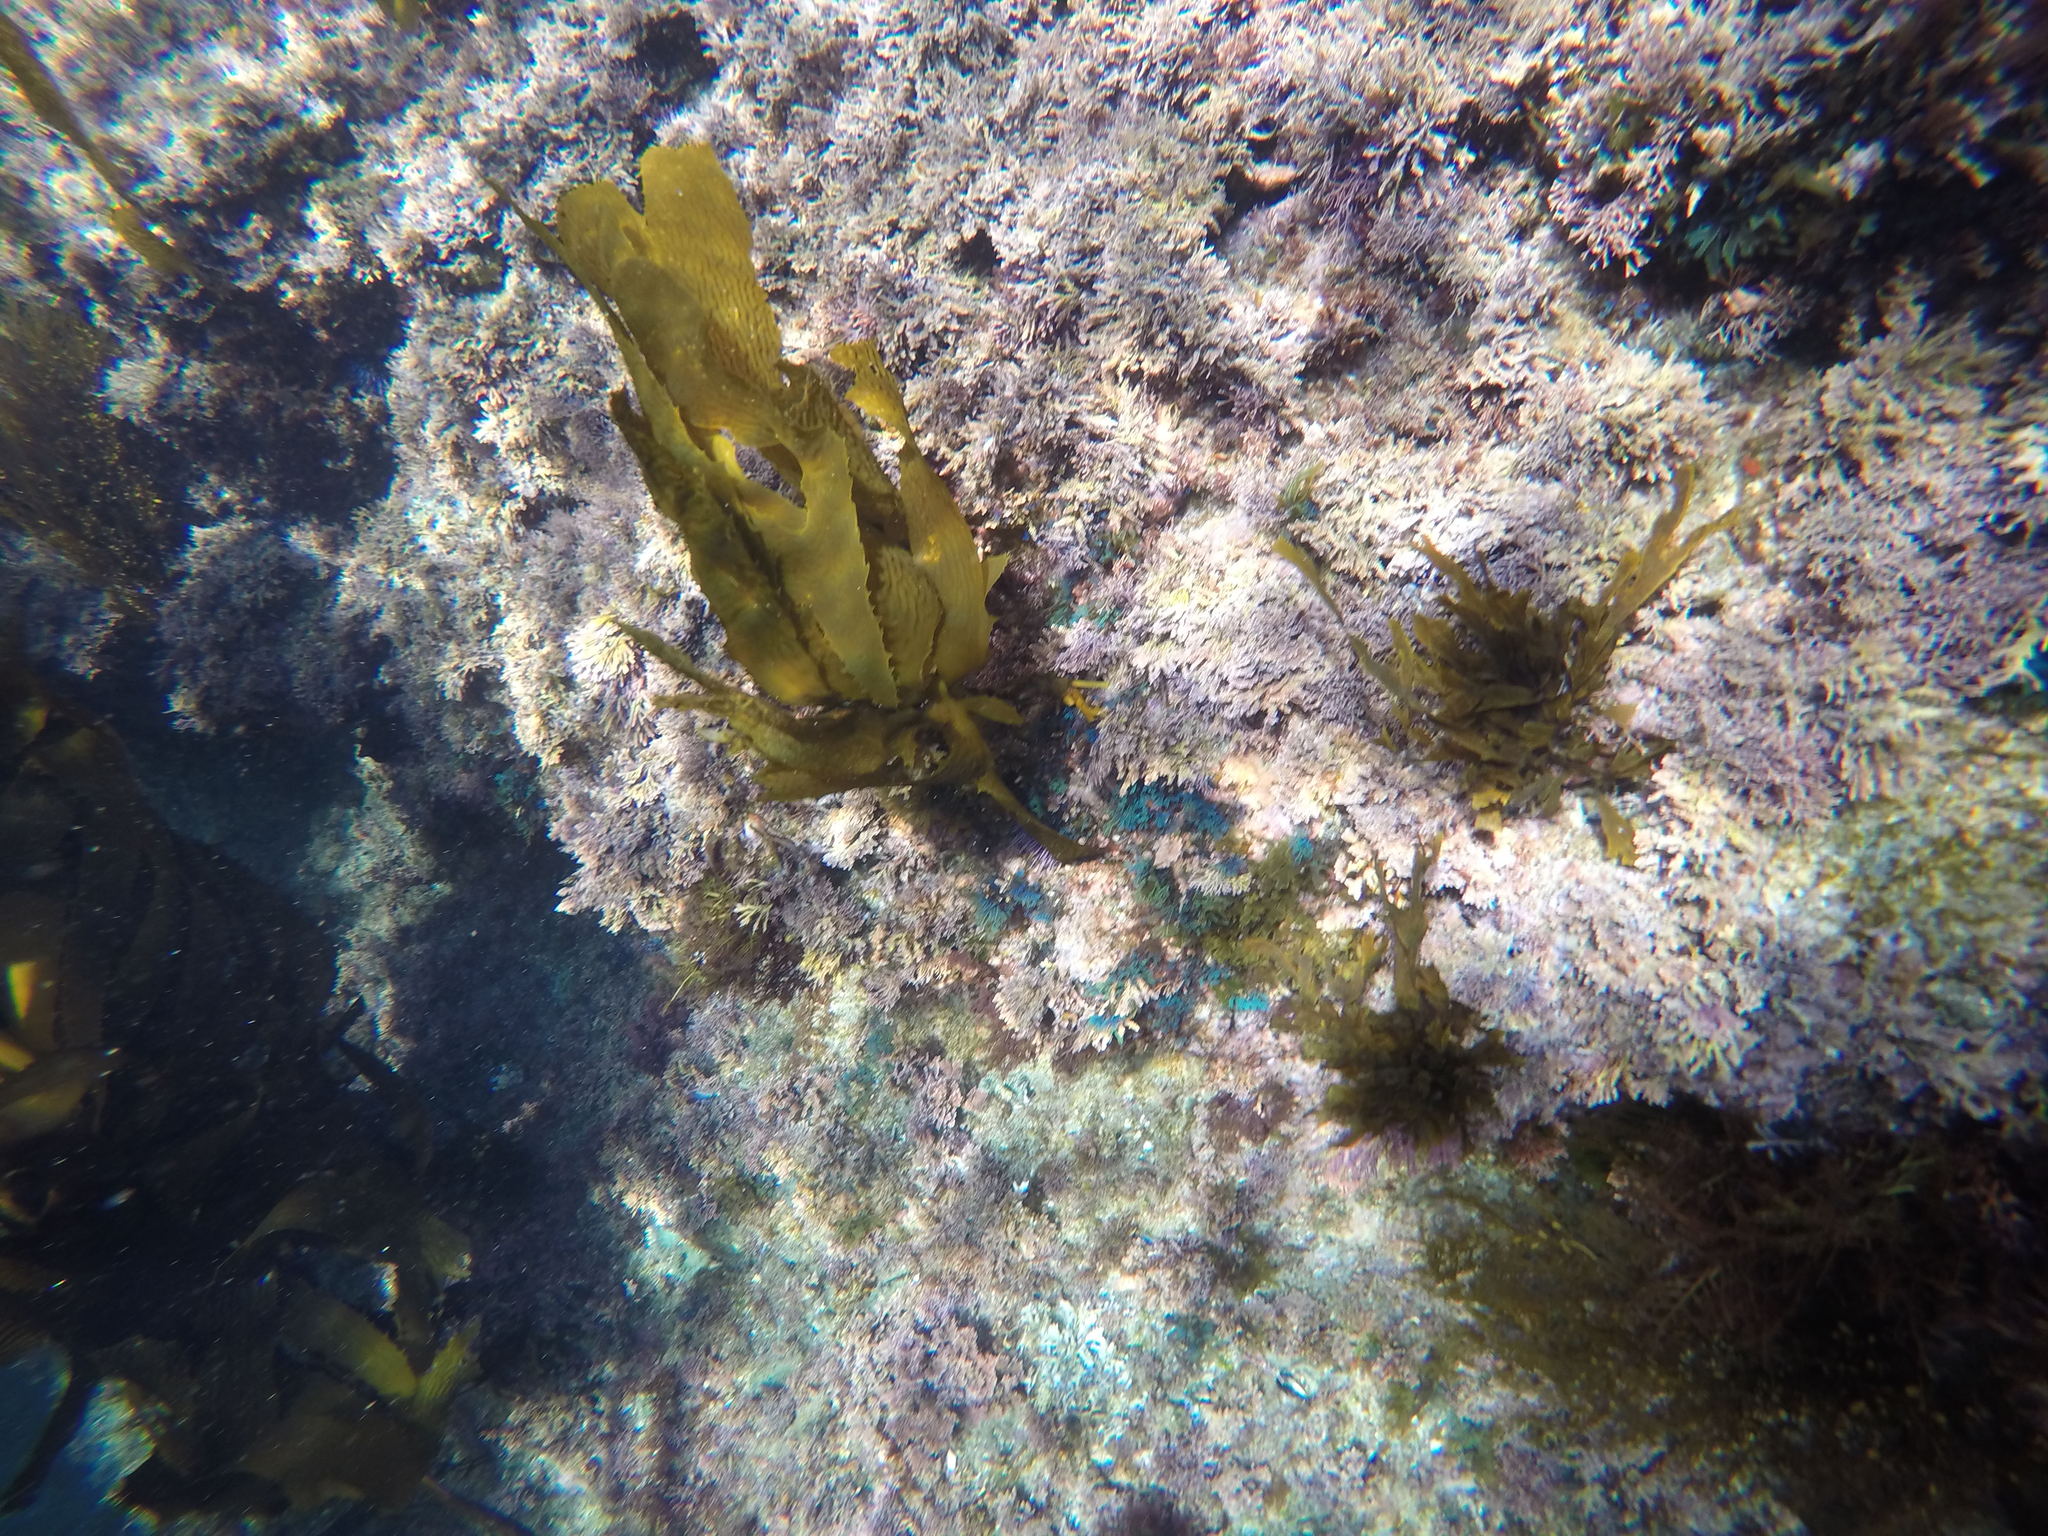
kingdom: Chromista
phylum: Ochrophyta
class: Phaeophyceae
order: Dictyotales
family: Dictyotaceae
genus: Dictyota
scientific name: Dictyota flabellata
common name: Brown algae
